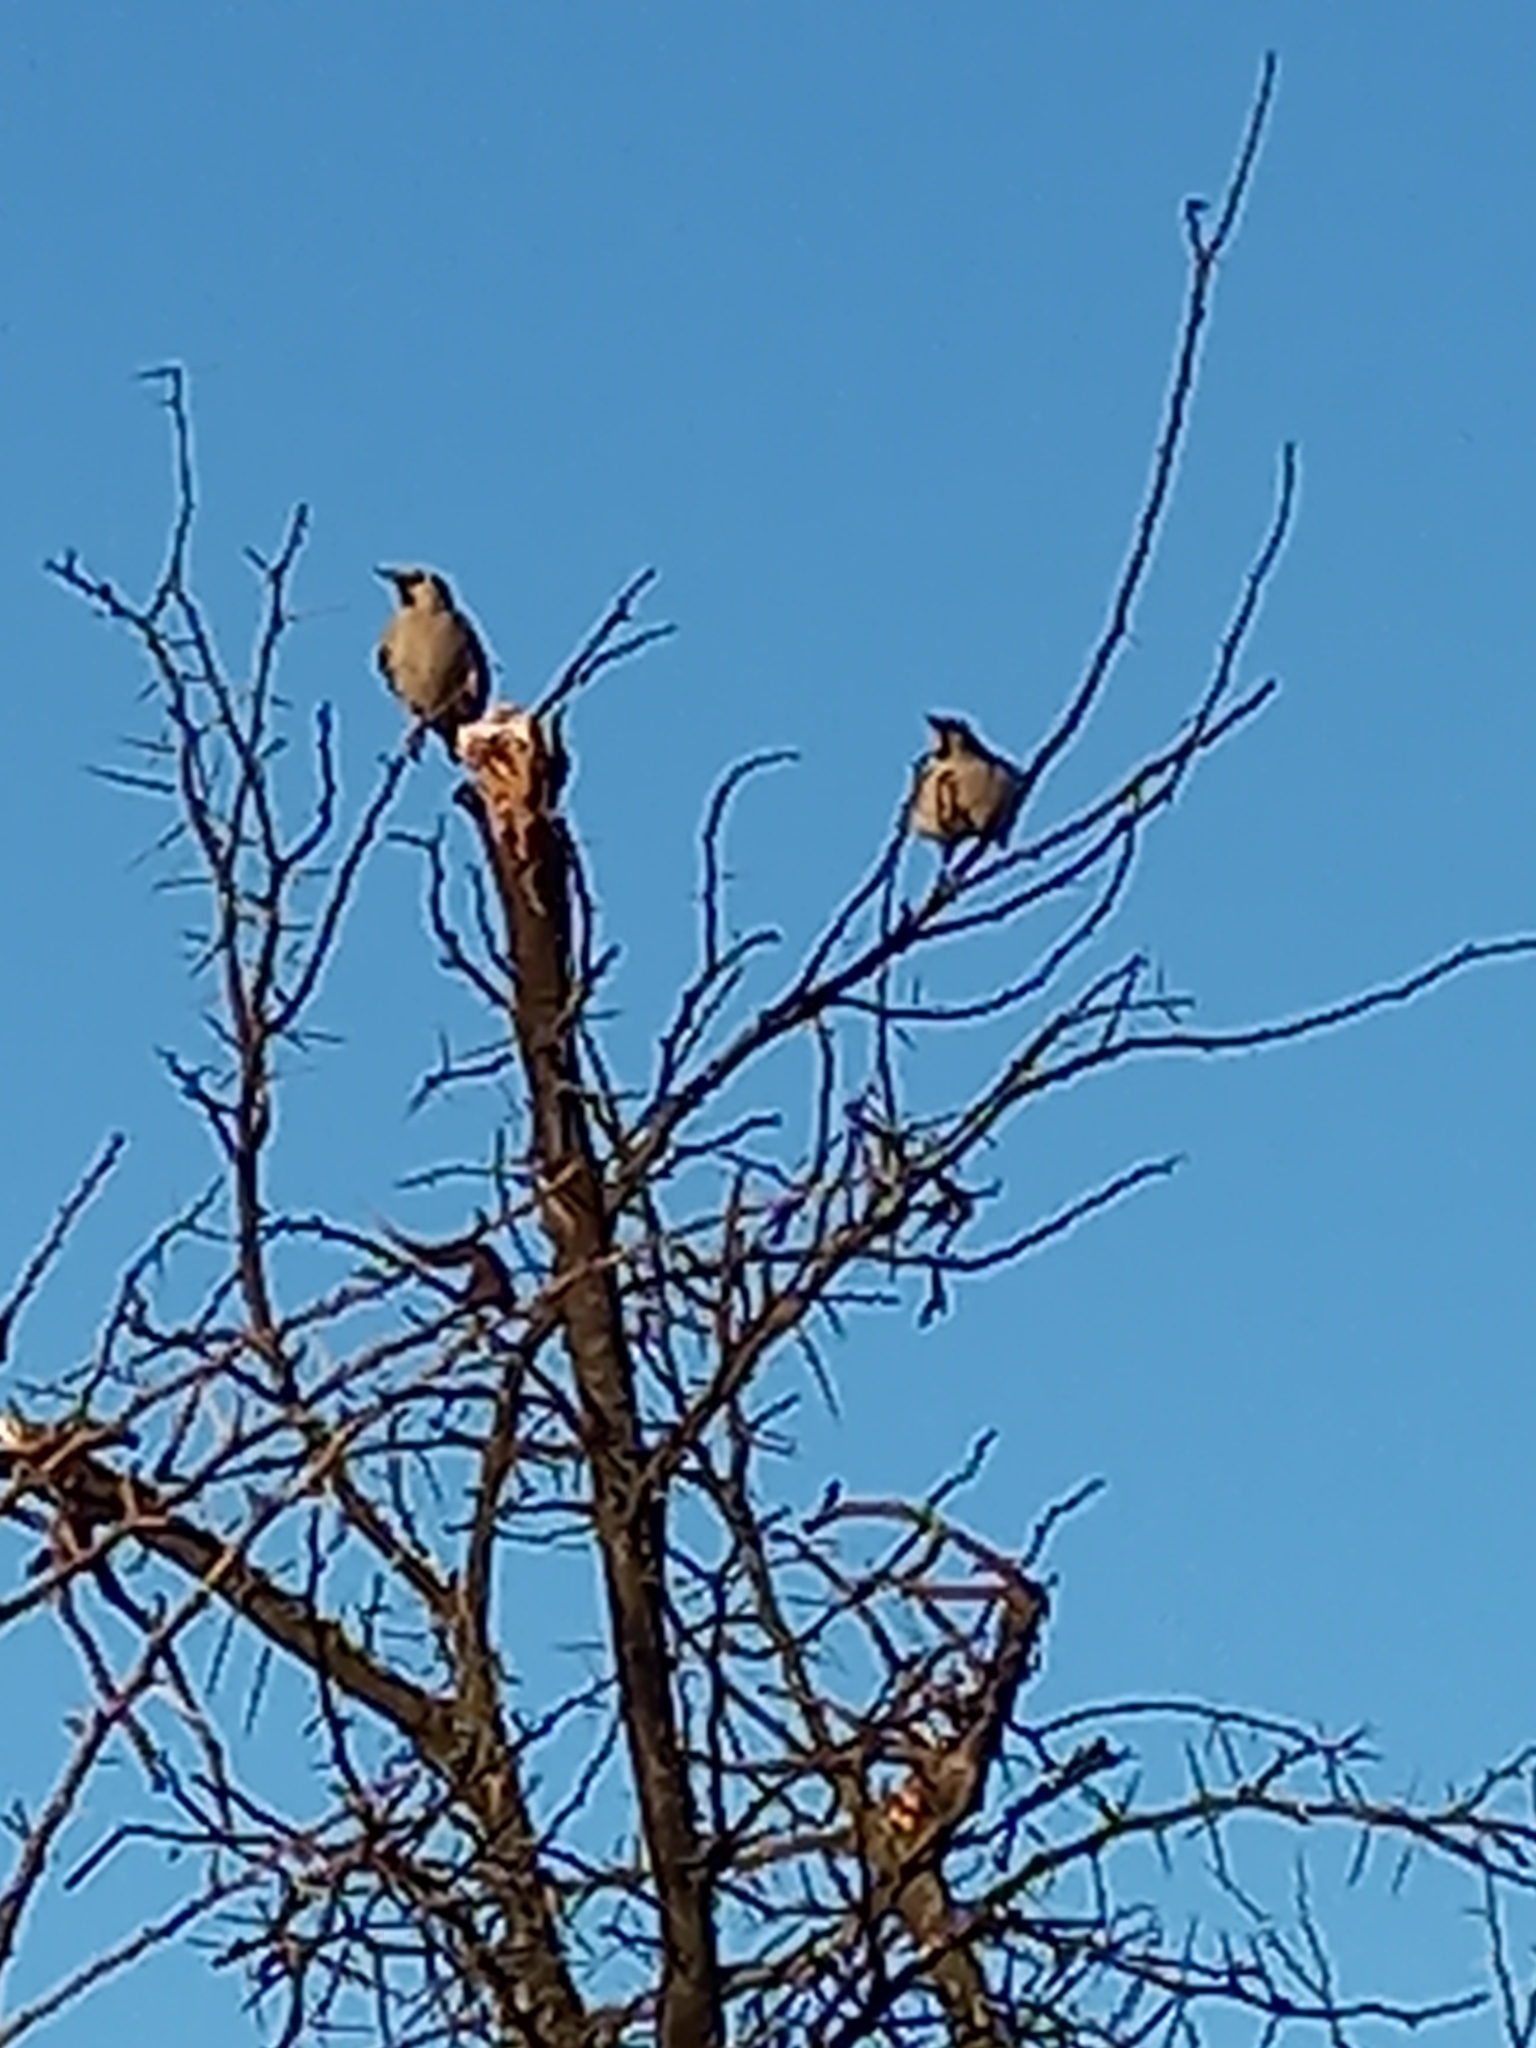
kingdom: Animalia
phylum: Chordata
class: Aves
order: Passeriformes
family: Sturnidae
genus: Creatophora
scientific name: Creatophora cinerea
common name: Wattled starling
